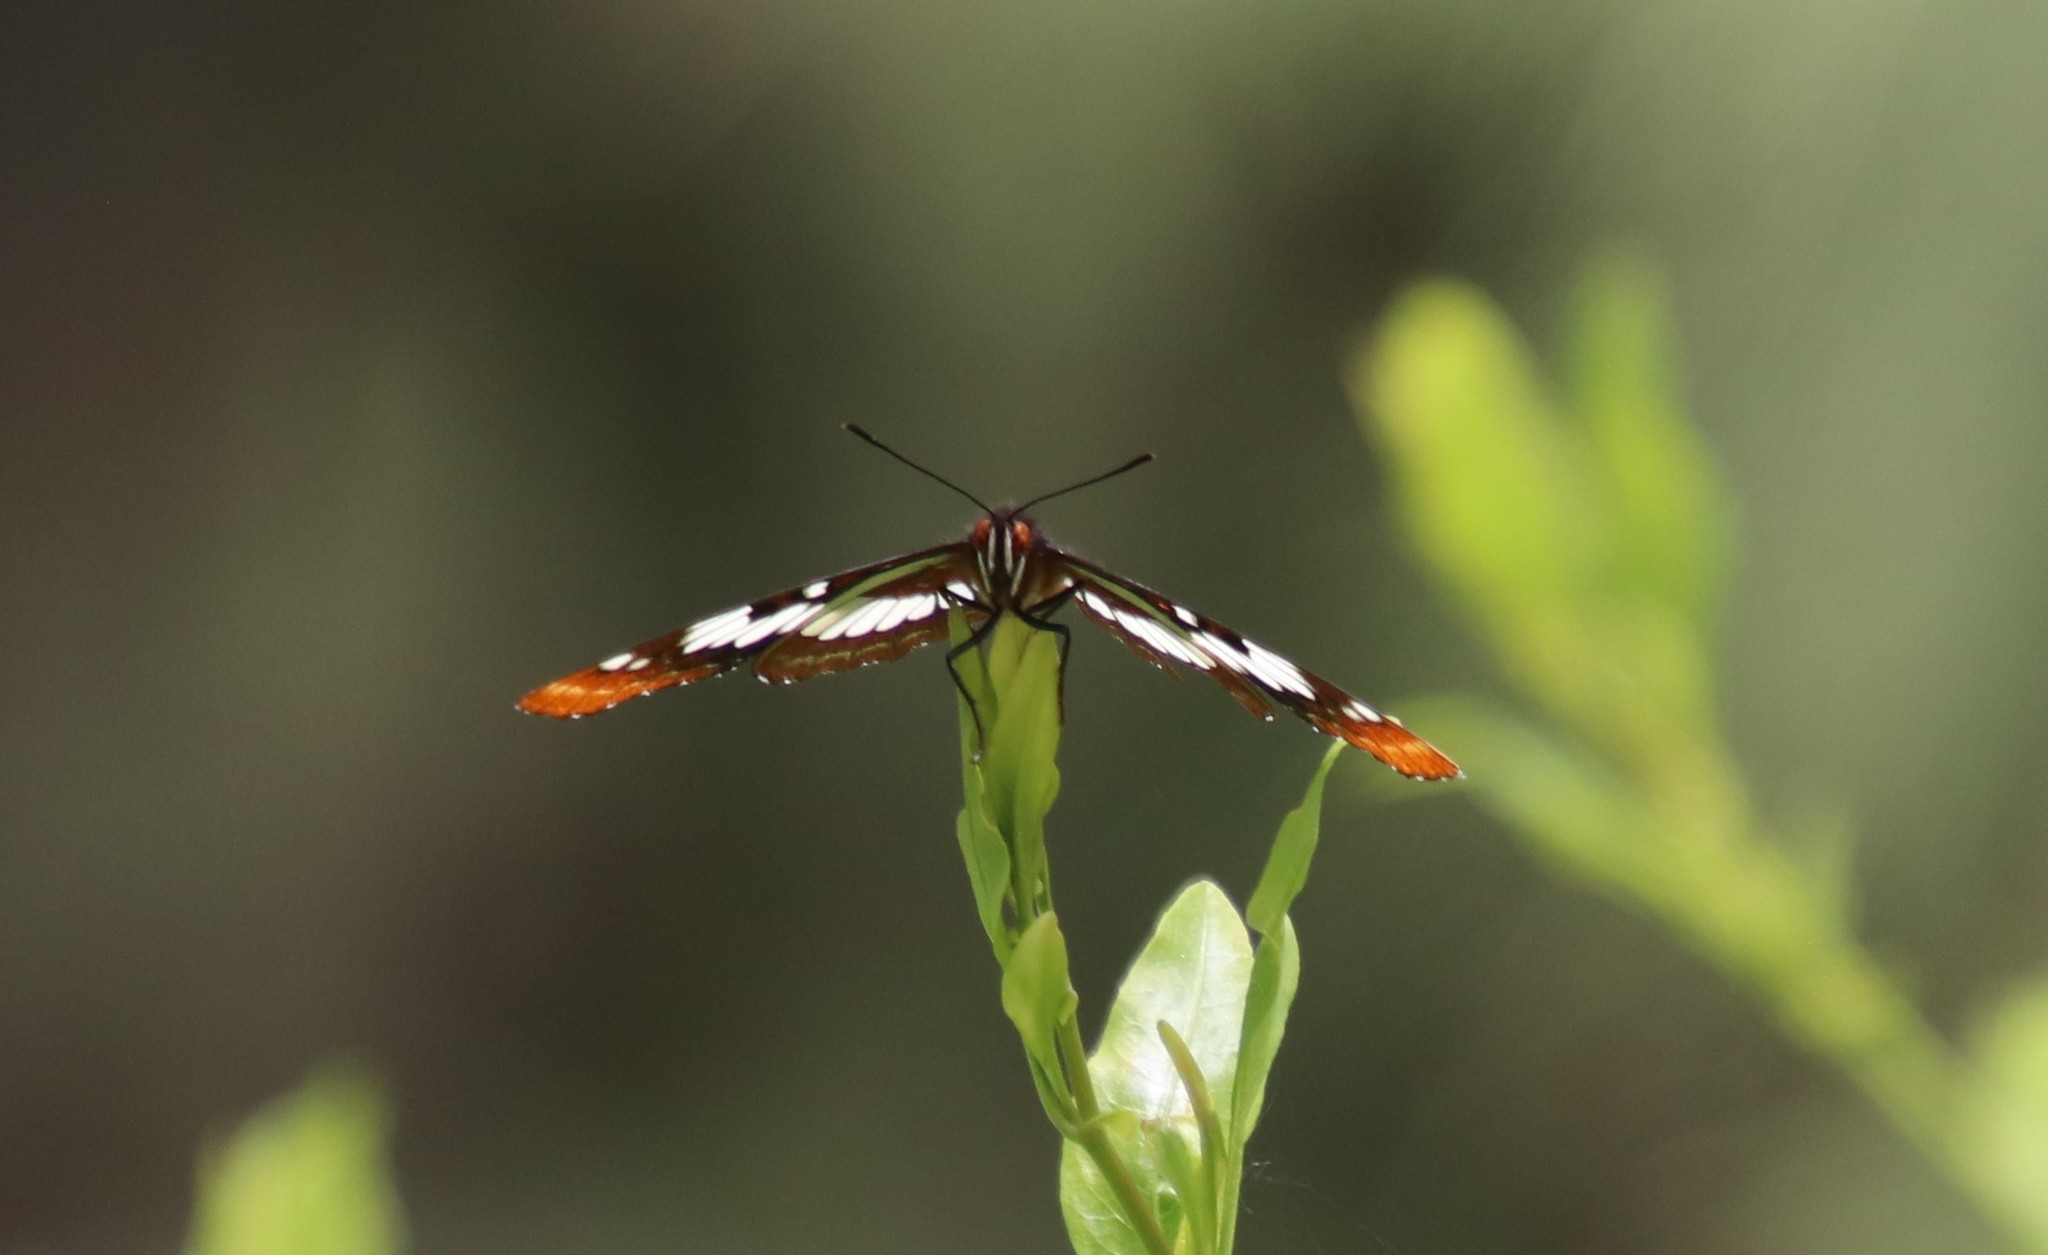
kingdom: Animalia
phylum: Arthropoda
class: Insecta
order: Lepidoptera
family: Nymphalidae
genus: Limenitis
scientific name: Limenitis lorquini
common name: Lorquin's admiral
